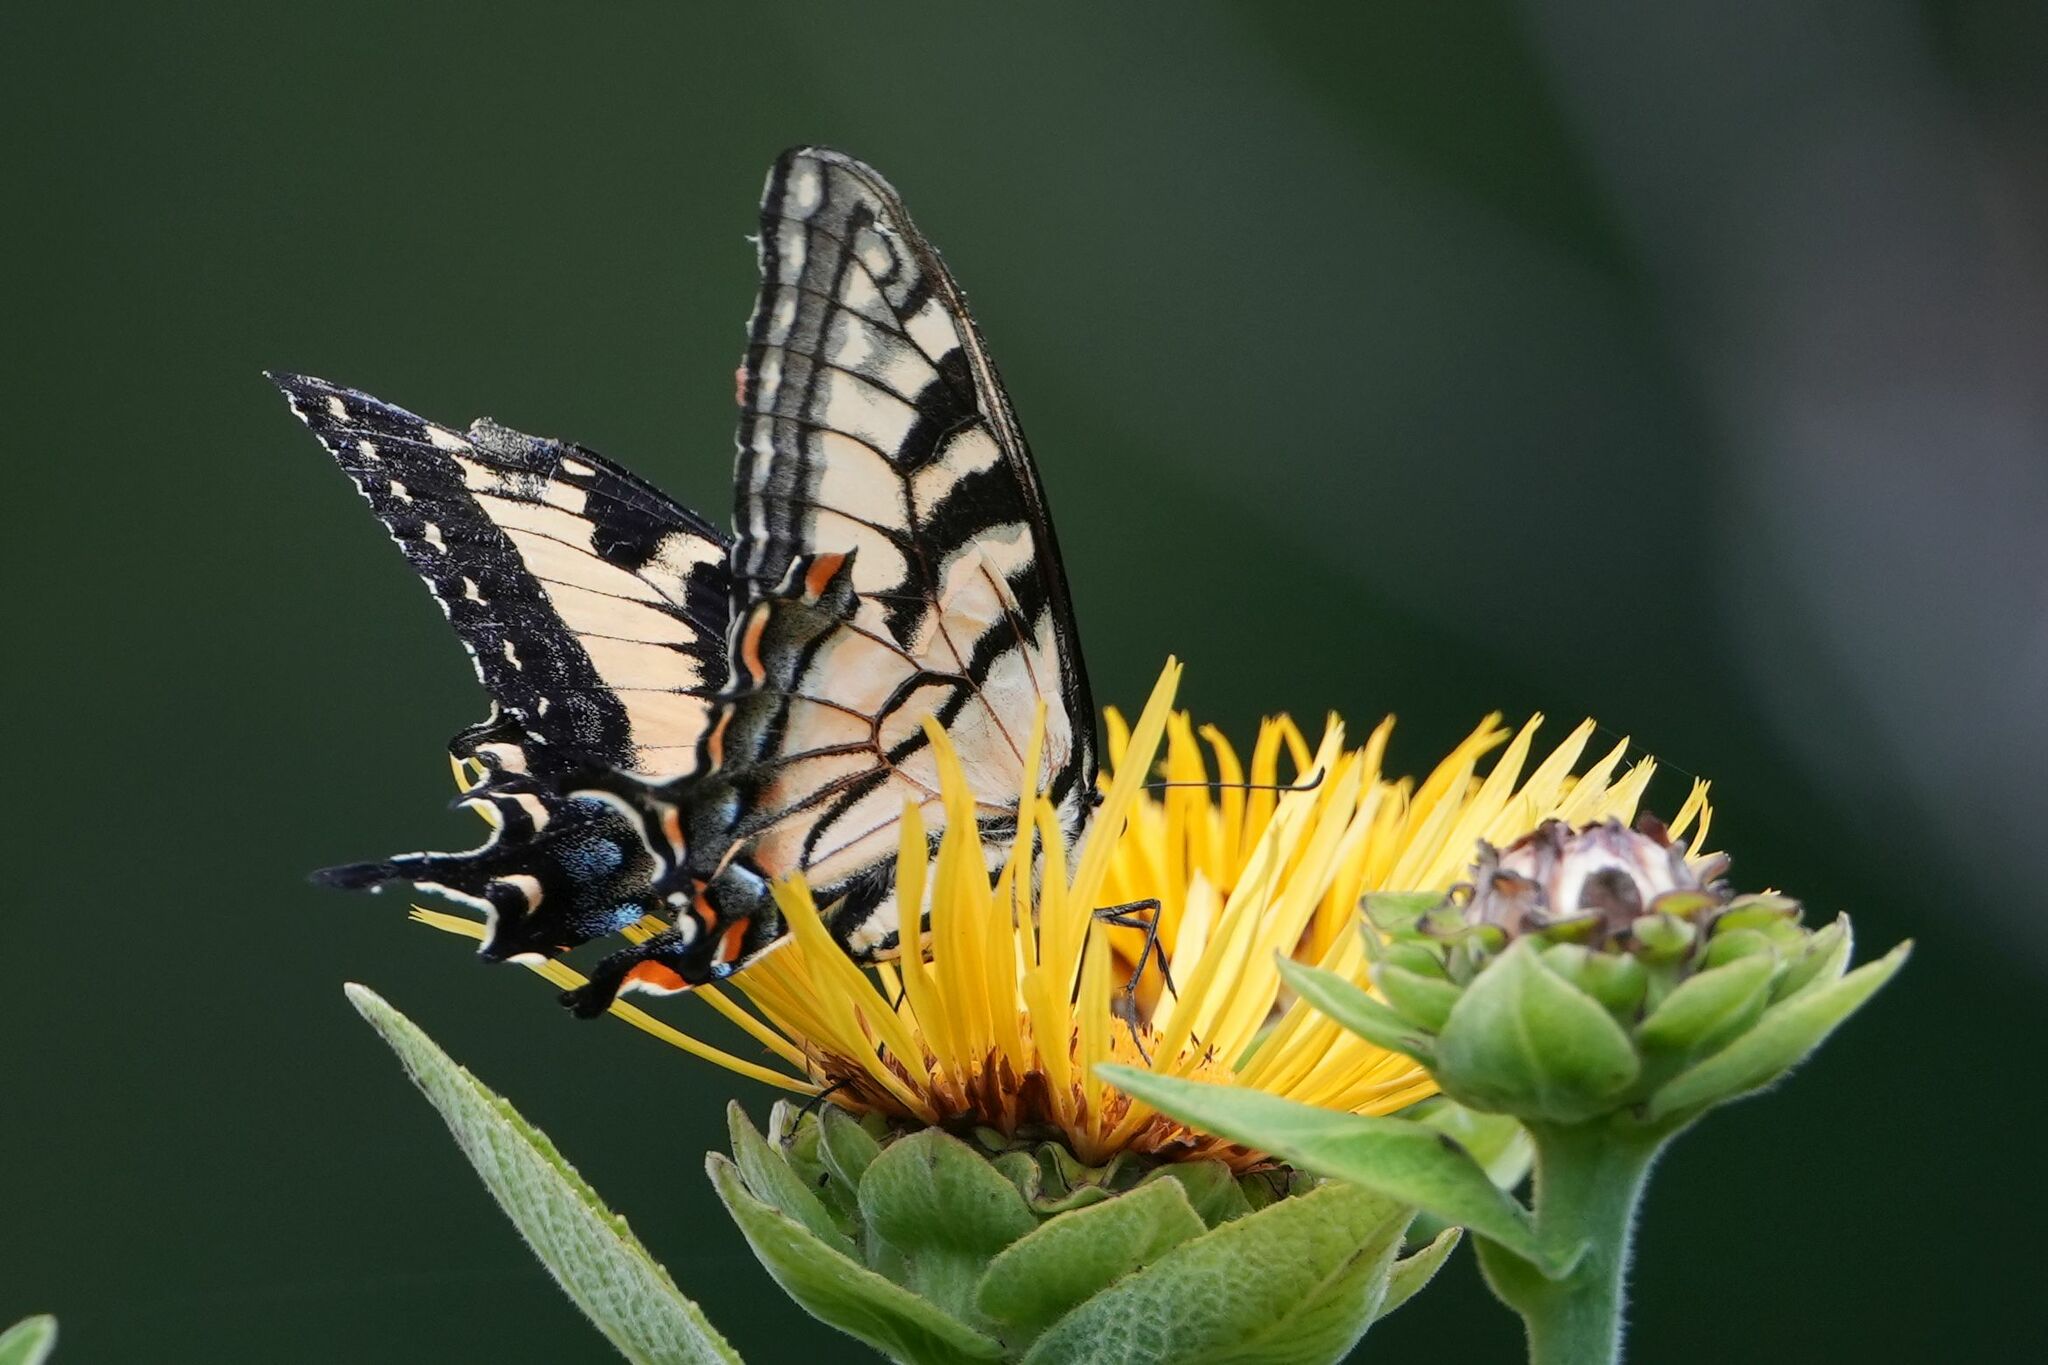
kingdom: Animalia
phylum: Arthropoda
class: Insecta
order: Lepidoptera
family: Papilionidae
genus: Papilio
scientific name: Papilio
